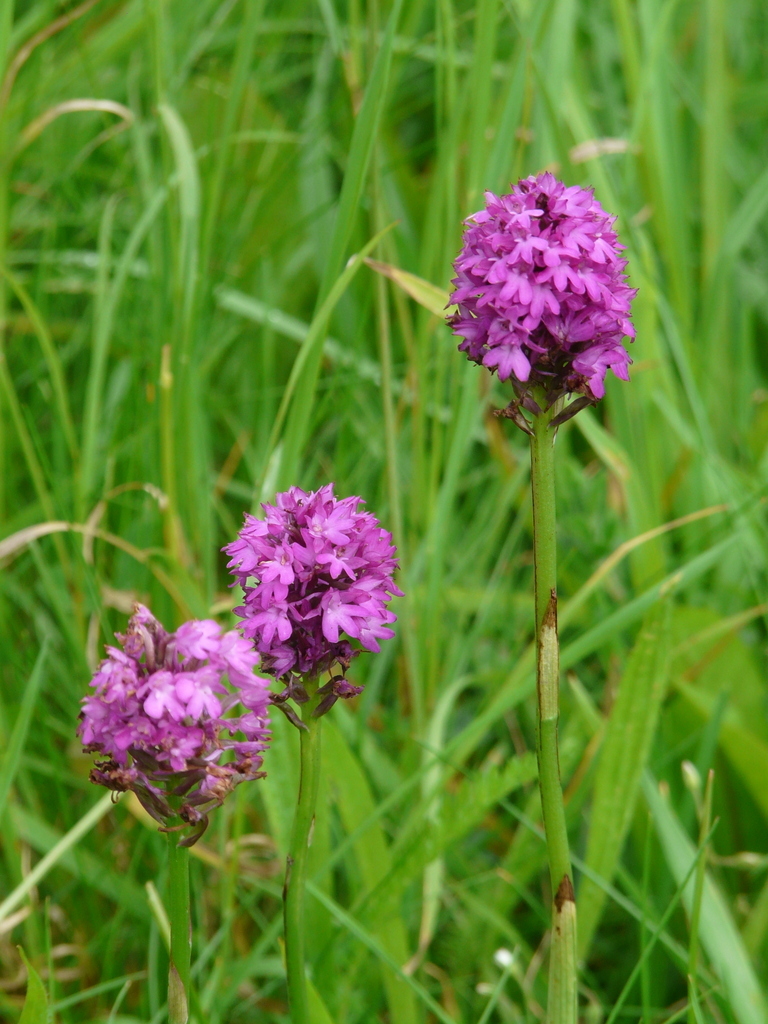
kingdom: Plantae
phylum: Tracheophyta
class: Liliopsida
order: Asparagales
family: Orchidaceae
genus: Anacamptis
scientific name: Anacamptis pyramidalis
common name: Pyramidal orchid
